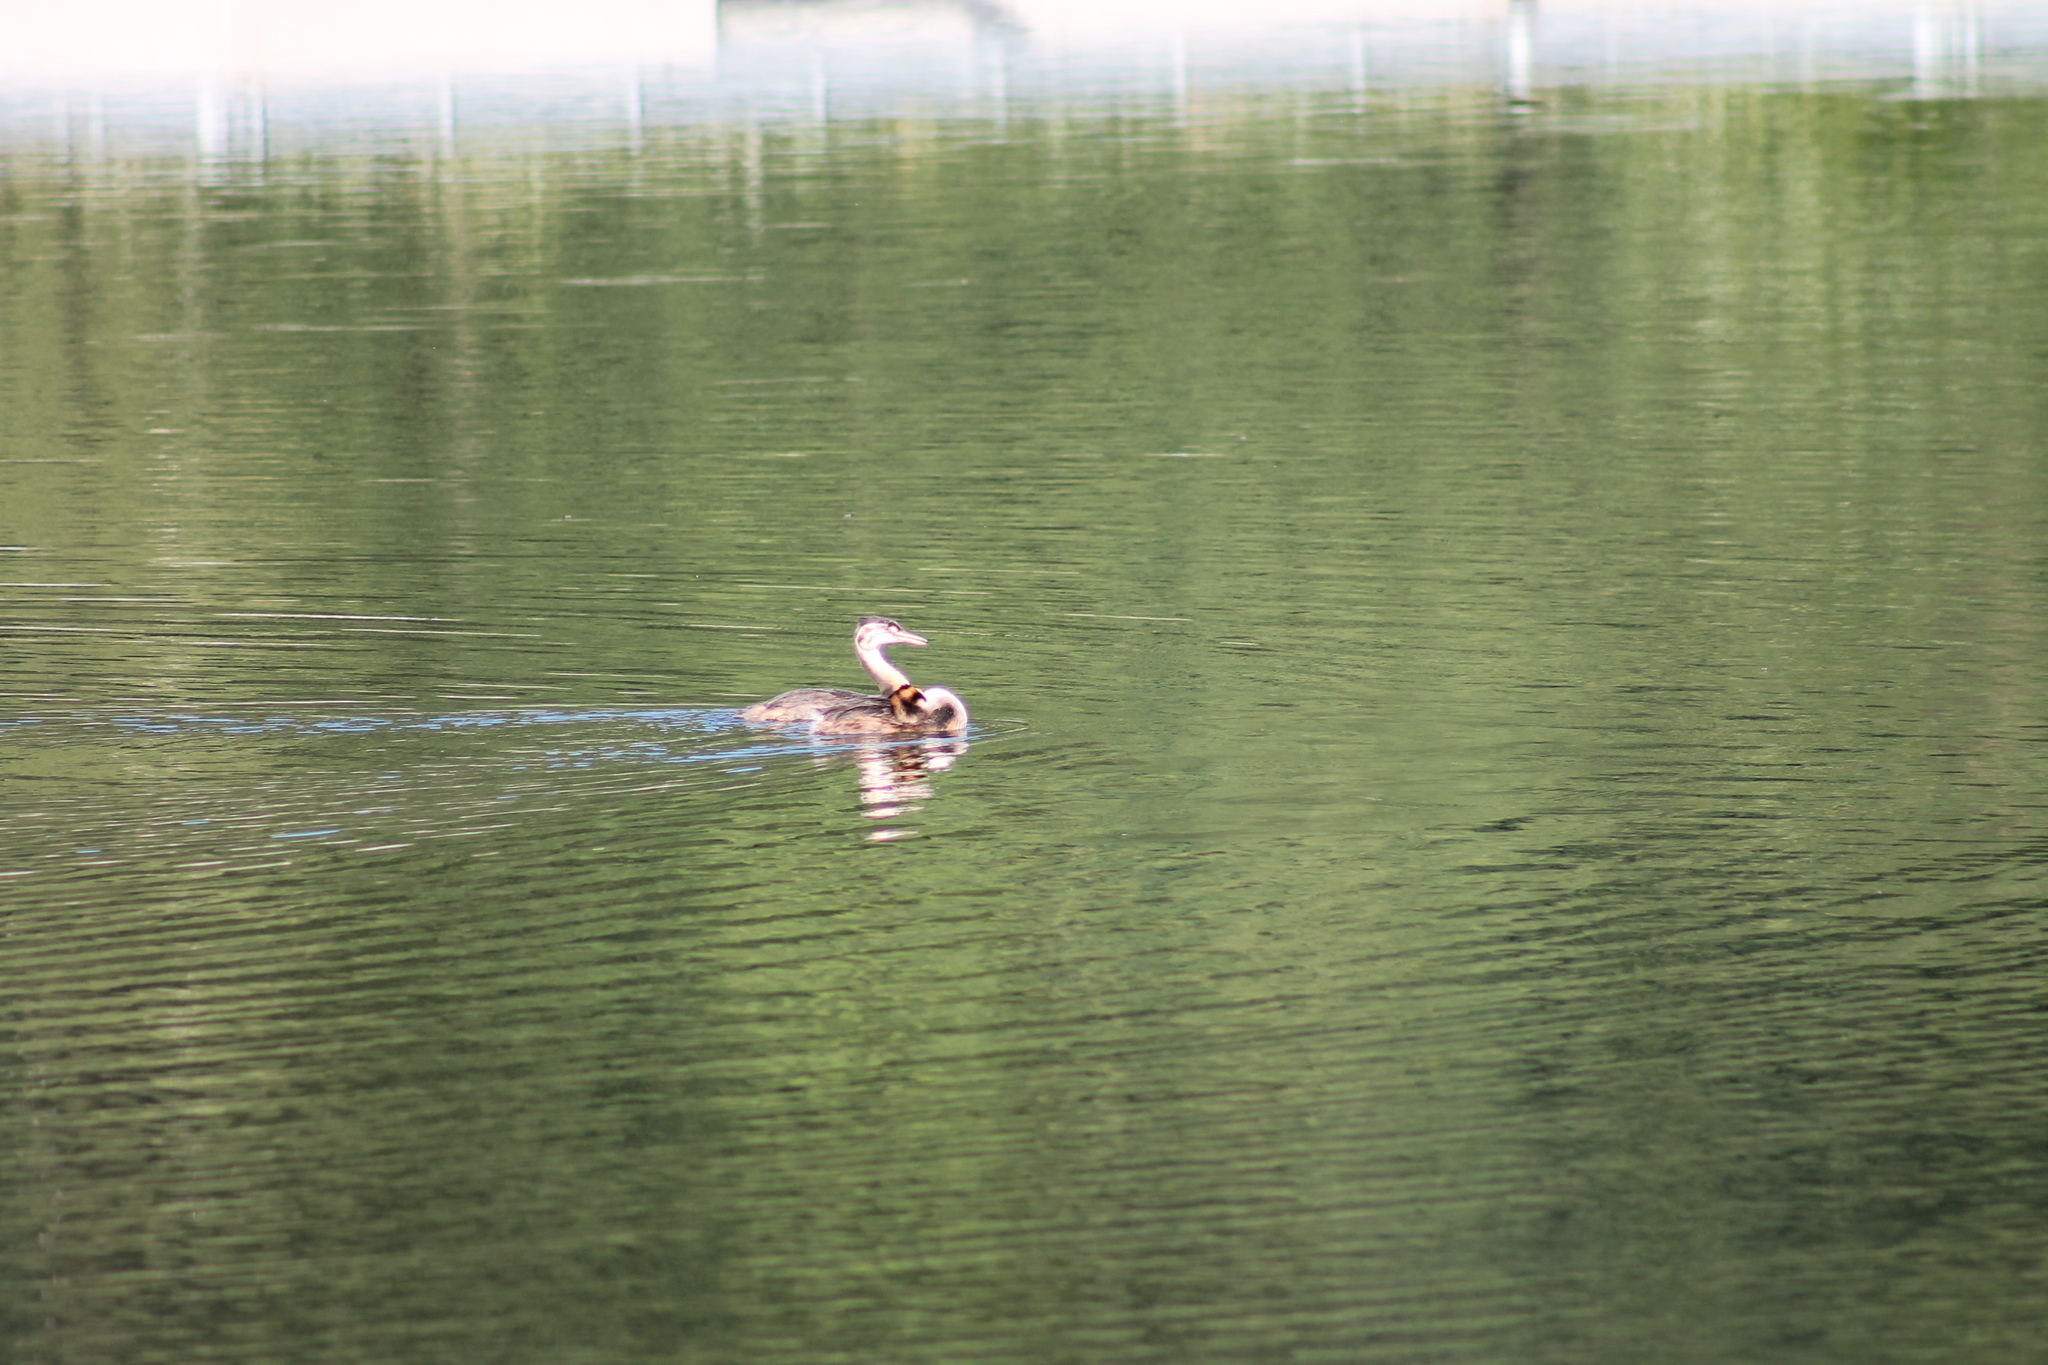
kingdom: Animalia
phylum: Chordata
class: Aves
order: Podicipediformes
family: Podicipedidae
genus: Podiceps
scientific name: Podiceps cristatus
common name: Great crested grebe
